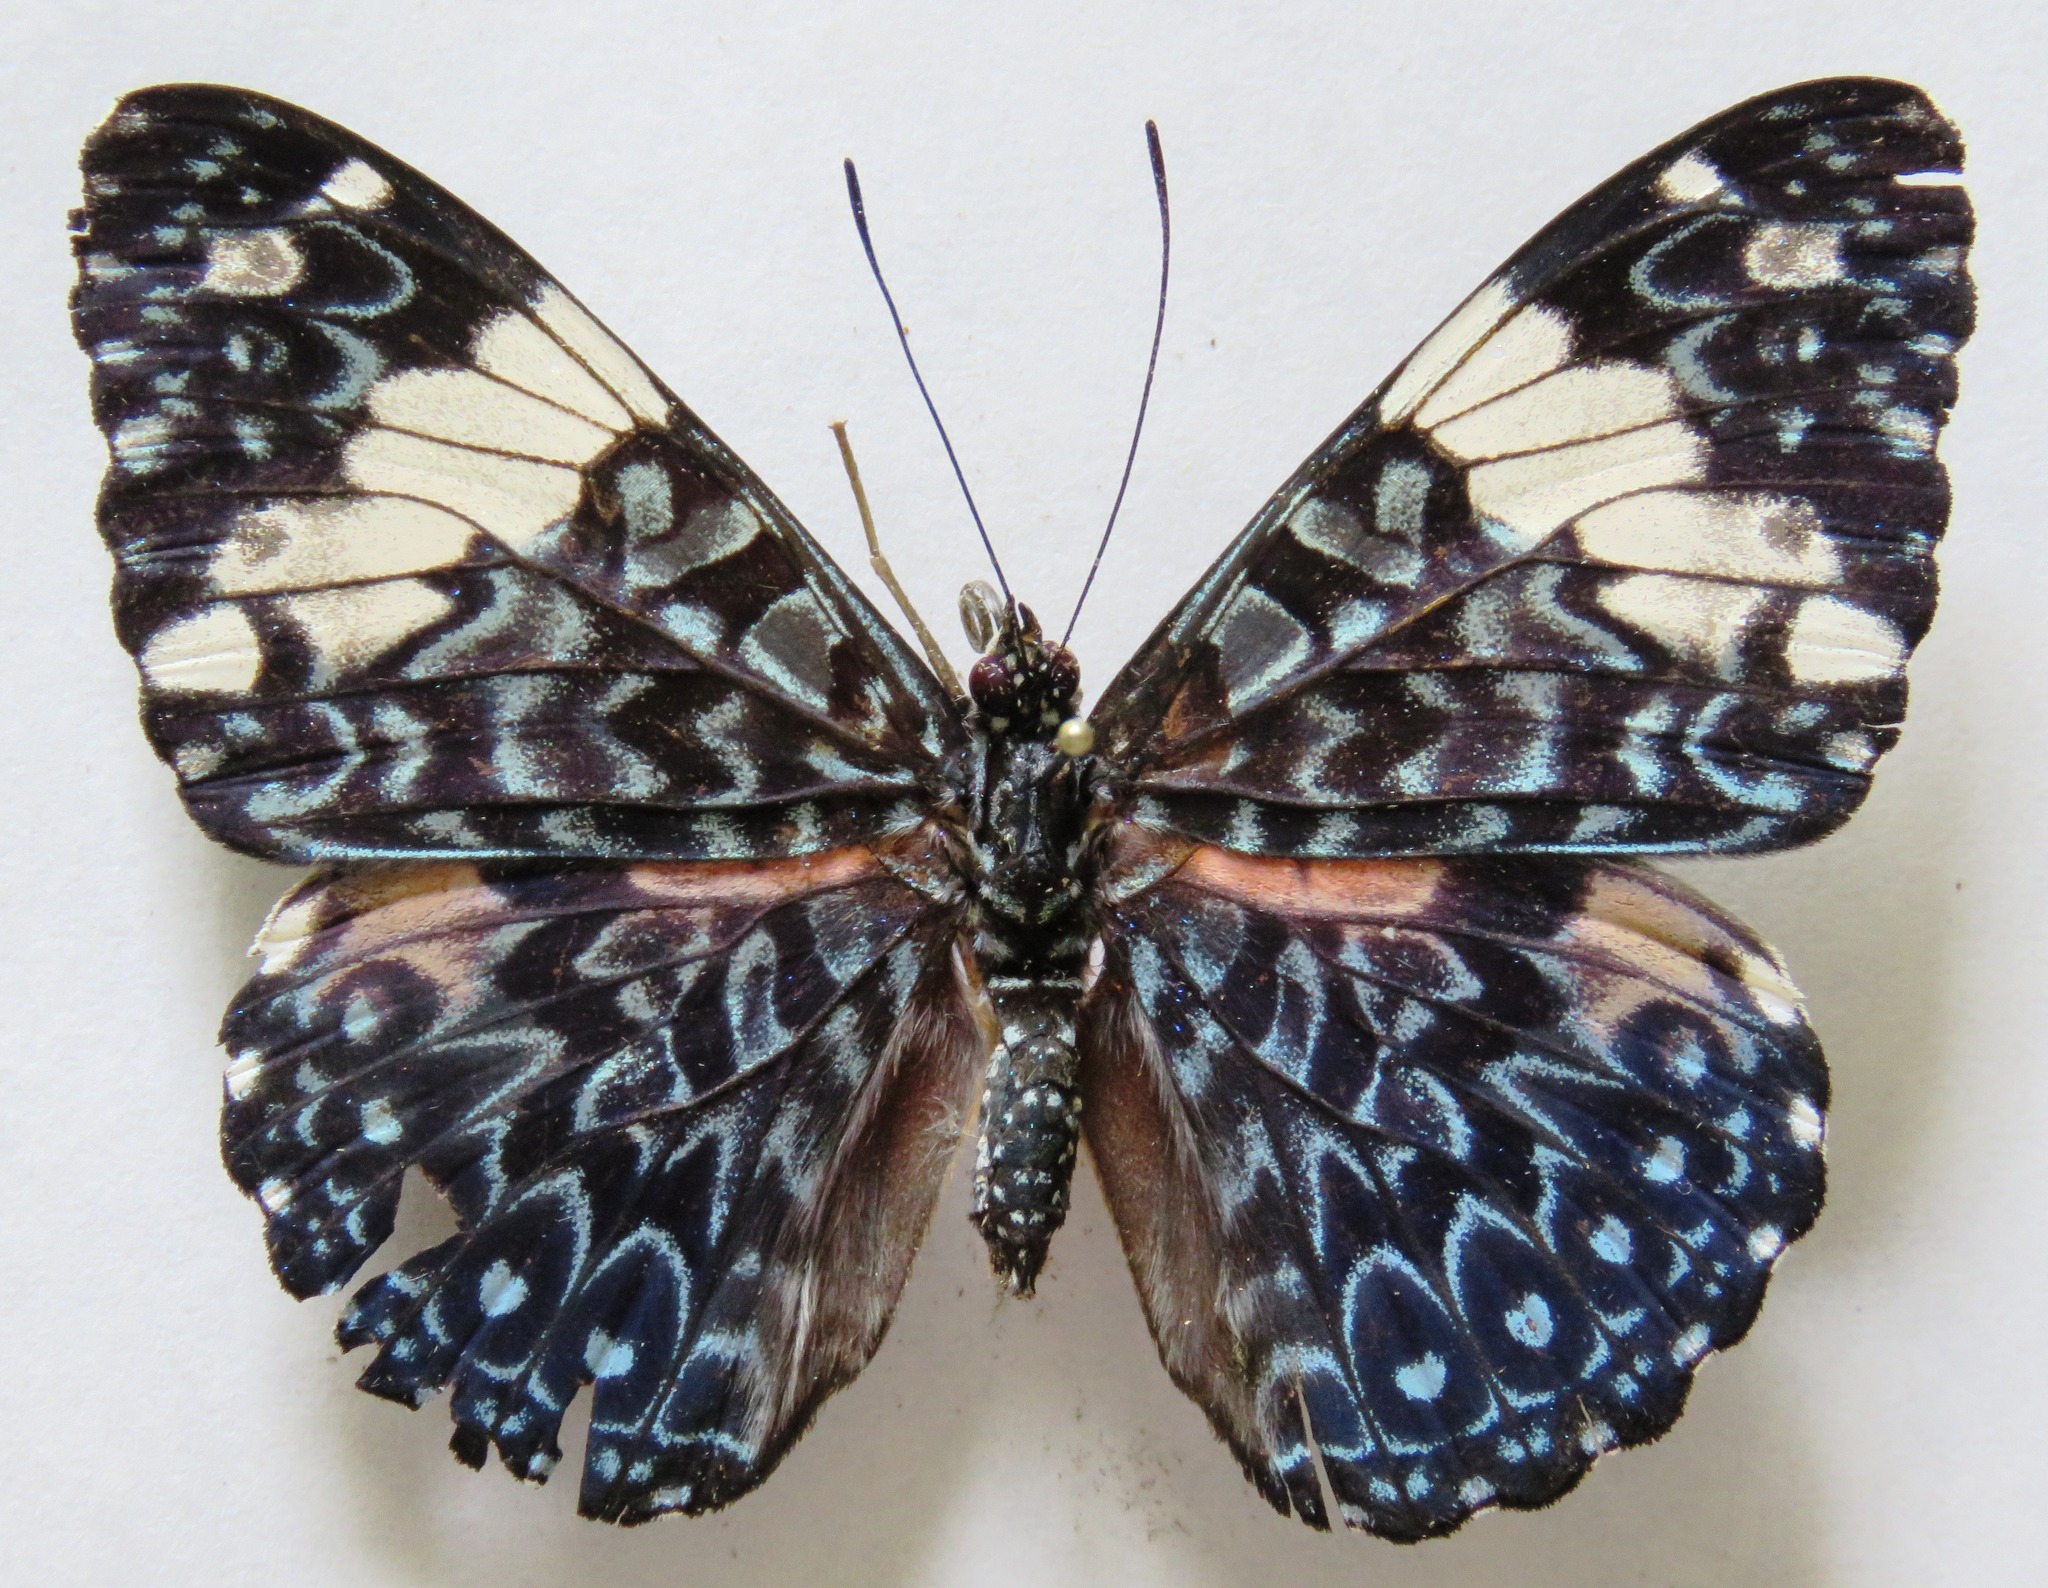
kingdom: Animalia
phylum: Arthropoda
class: Insecta
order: Lepidoptera
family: Nymphalidae
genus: Hamadryas
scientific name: Hamadryas amphinome
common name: Red cracker
